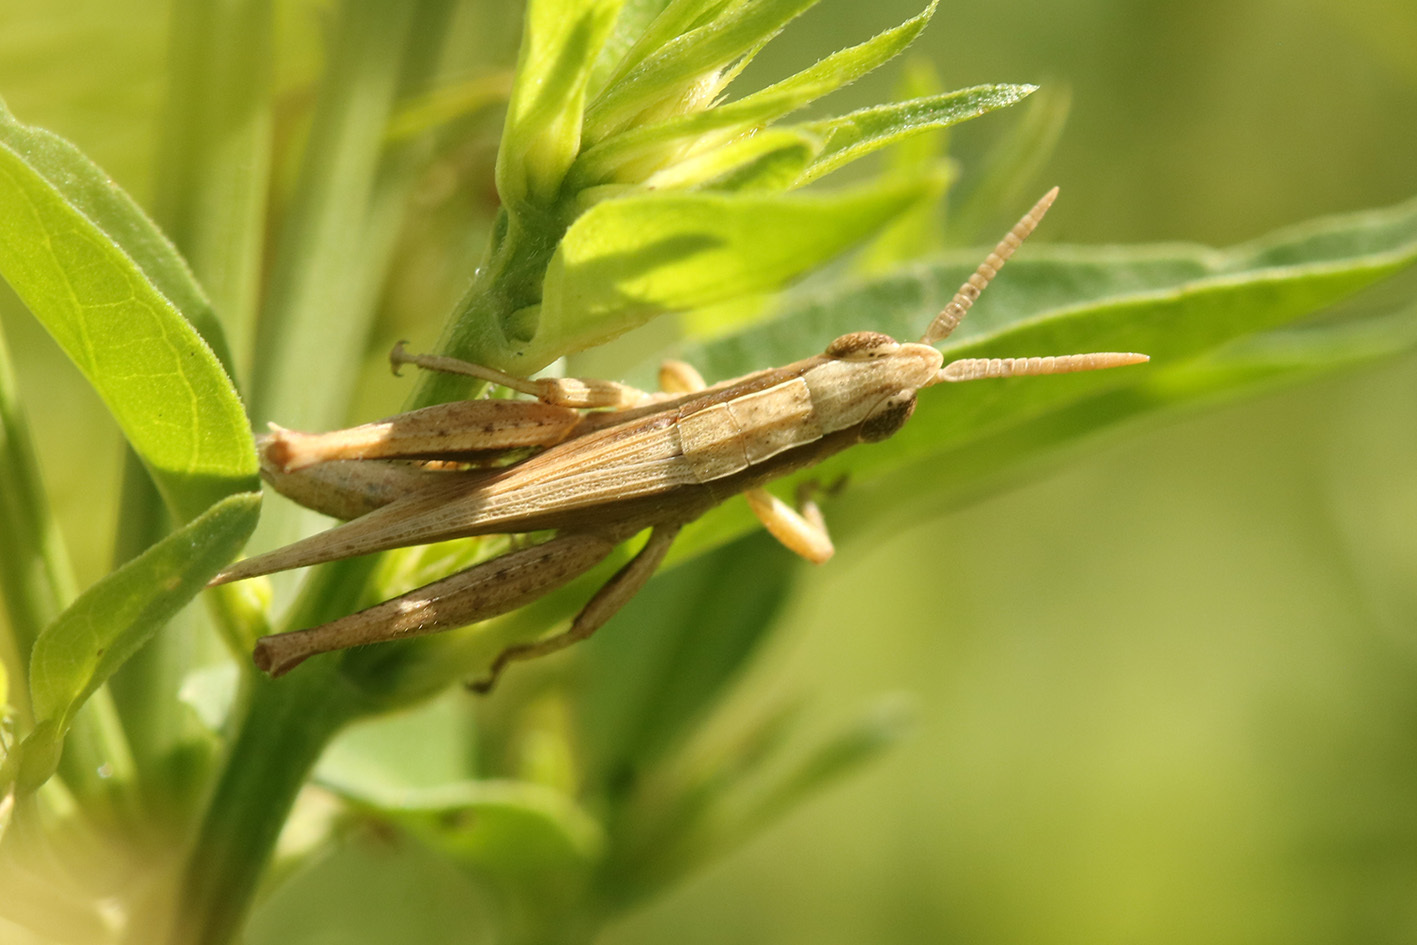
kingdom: Animalia
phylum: Arthropoda
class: Insecta
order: Orthoptera
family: Acrididae
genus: Laplatacris
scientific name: Laplatacris dispar
